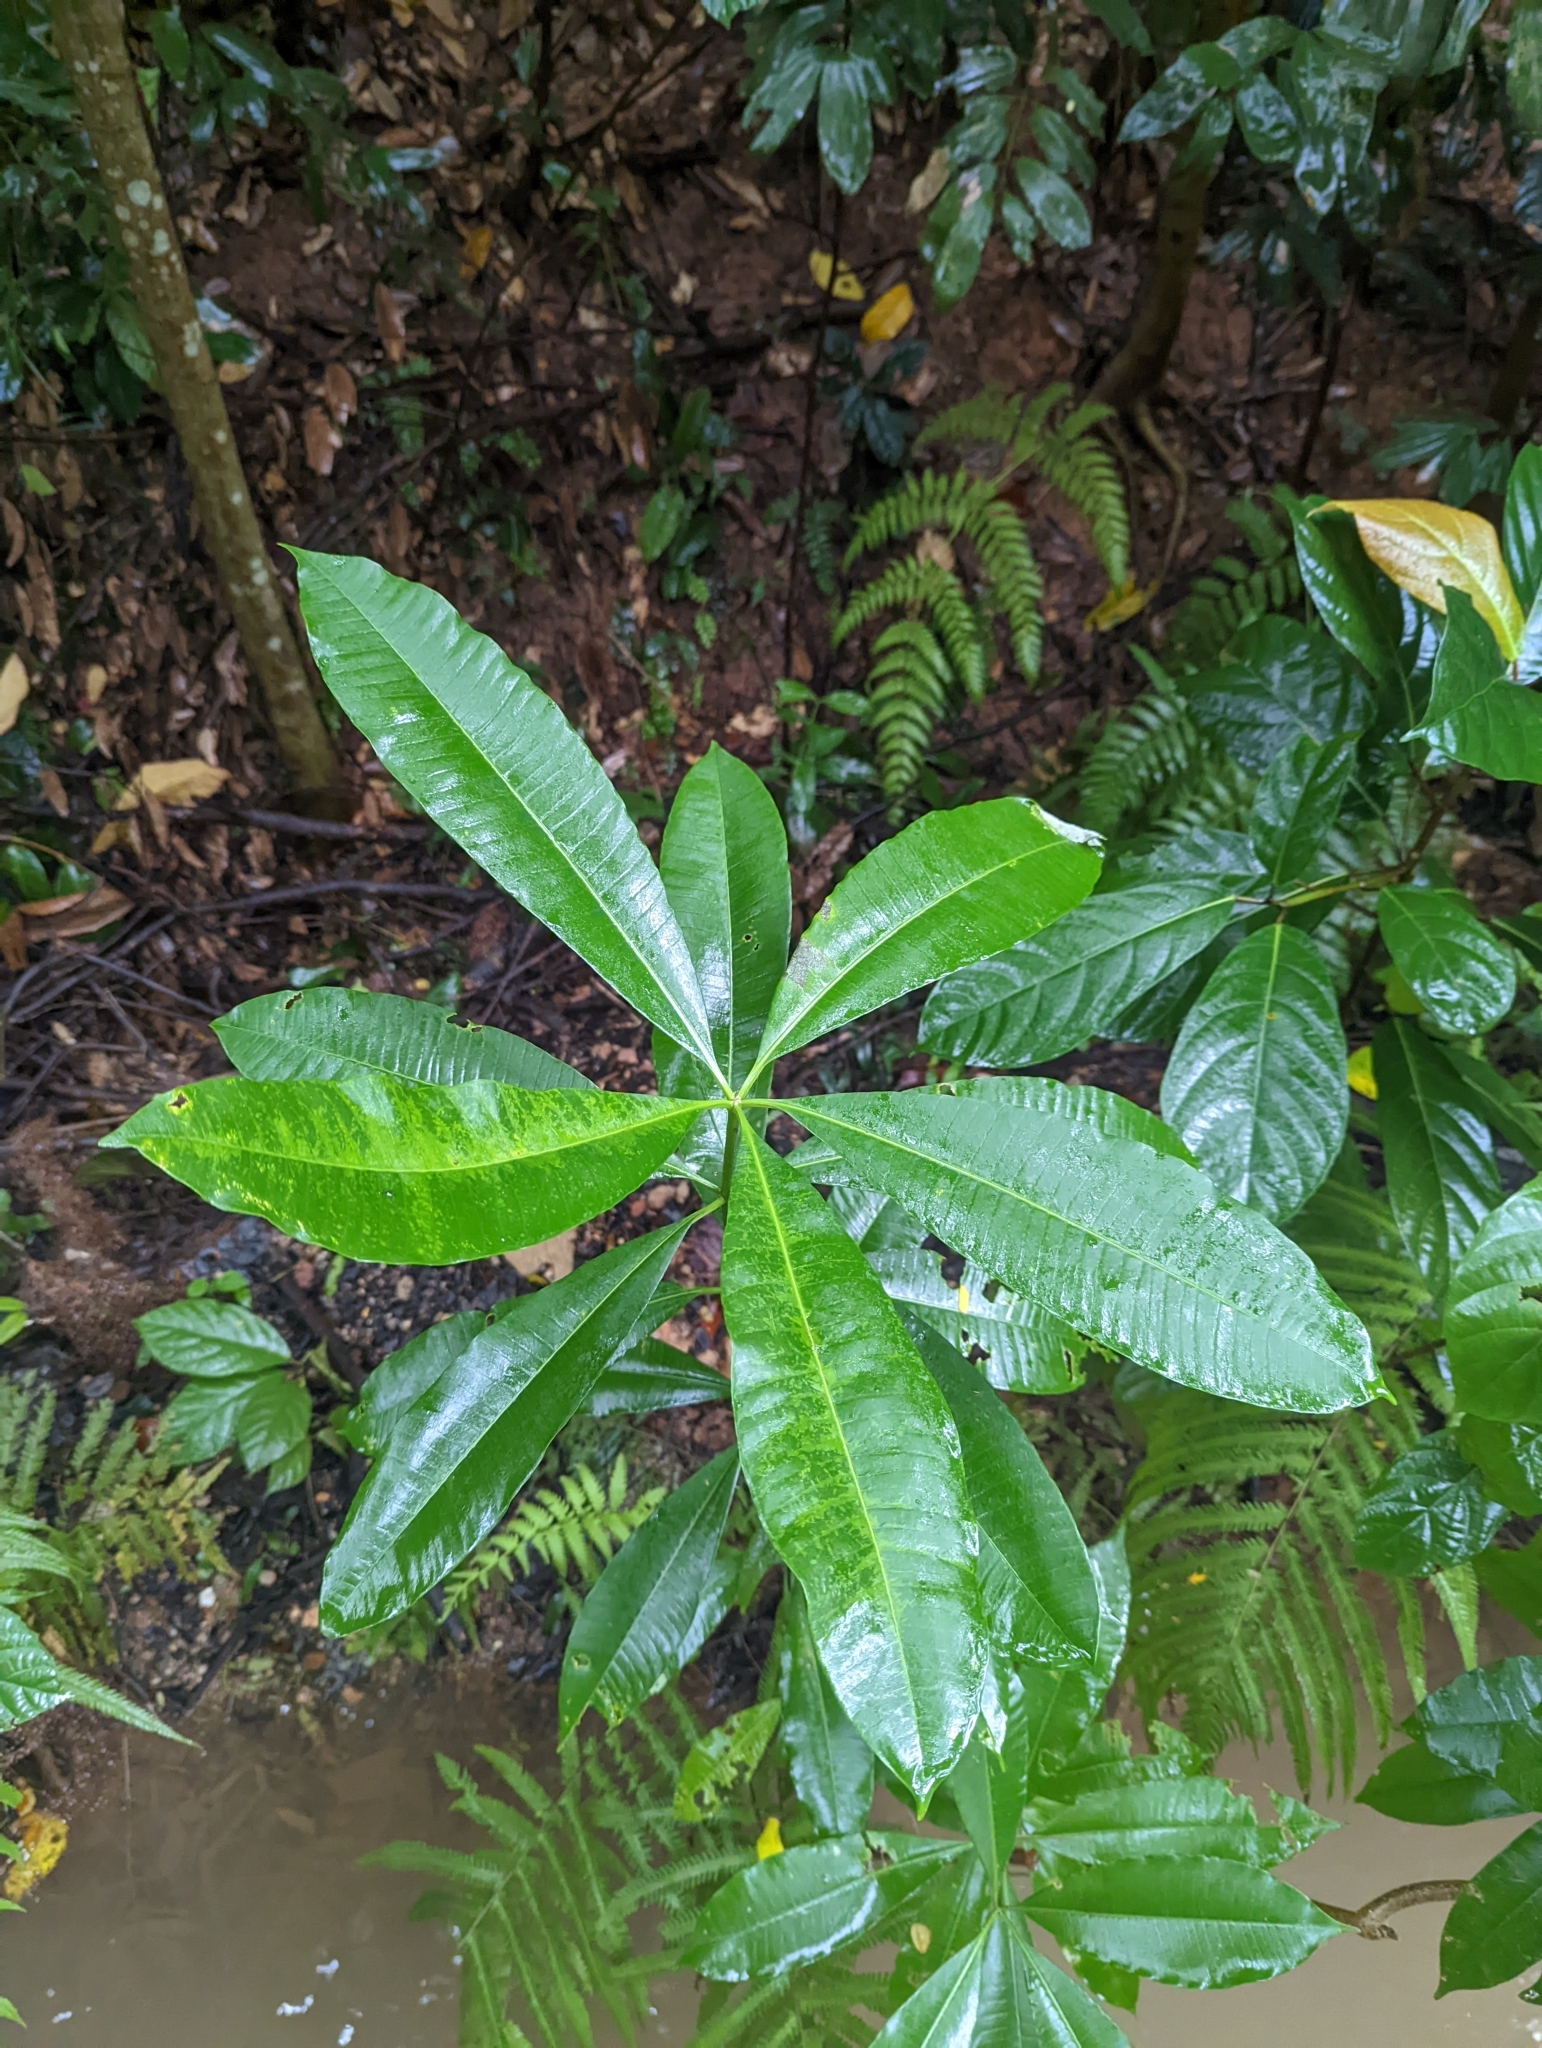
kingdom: Plantae
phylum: Tracheophyta
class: Magnoliopsida
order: Gentianales
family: Apocynaceae
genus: Alstonia
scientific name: Alstonia scholaris
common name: White cheesewood
